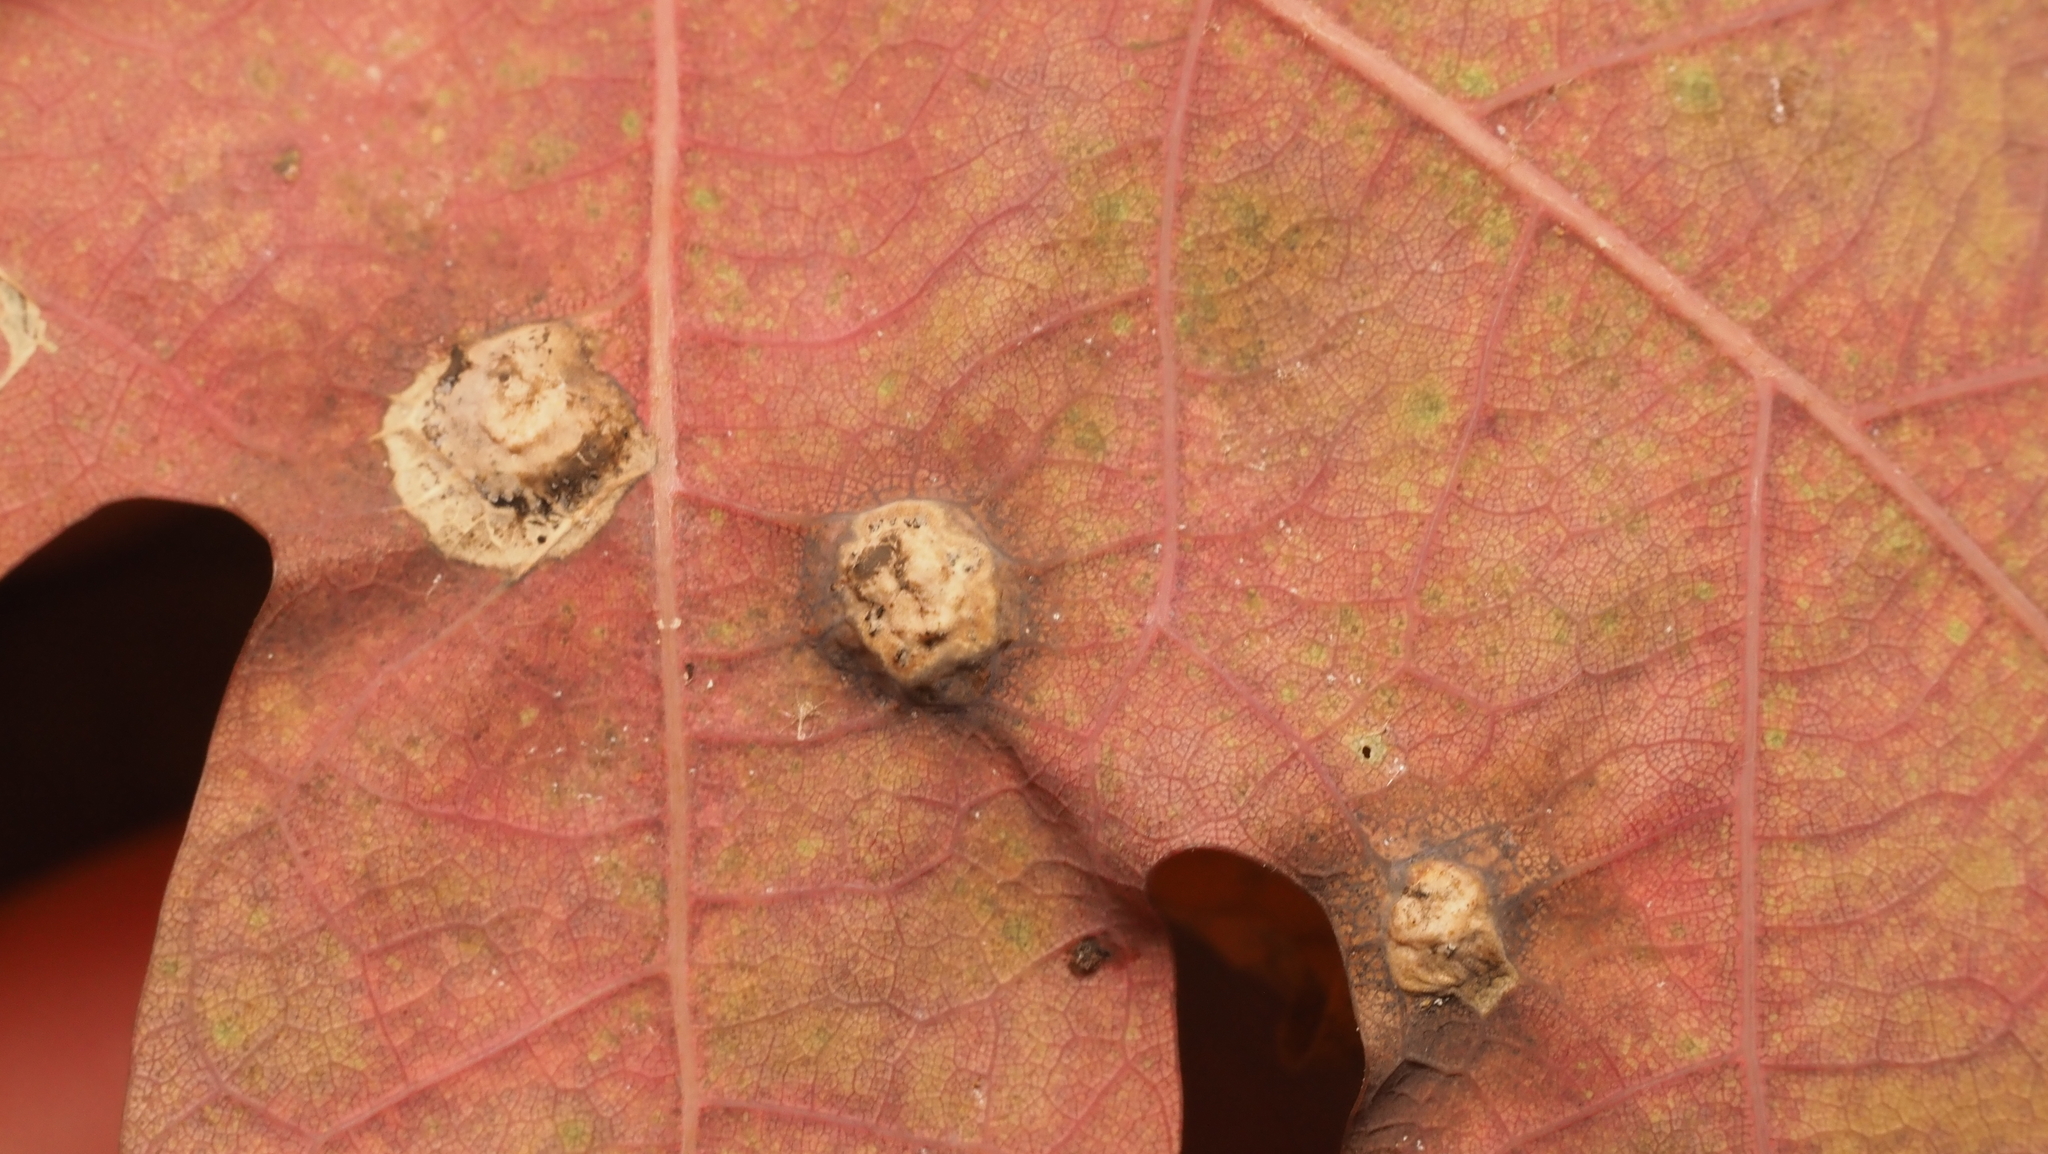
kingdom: Animalia
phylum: Arthropoda
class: Insecta
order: Hymenoptera
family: Cynipidae
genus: Callirhytis
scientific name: Callirhytis
